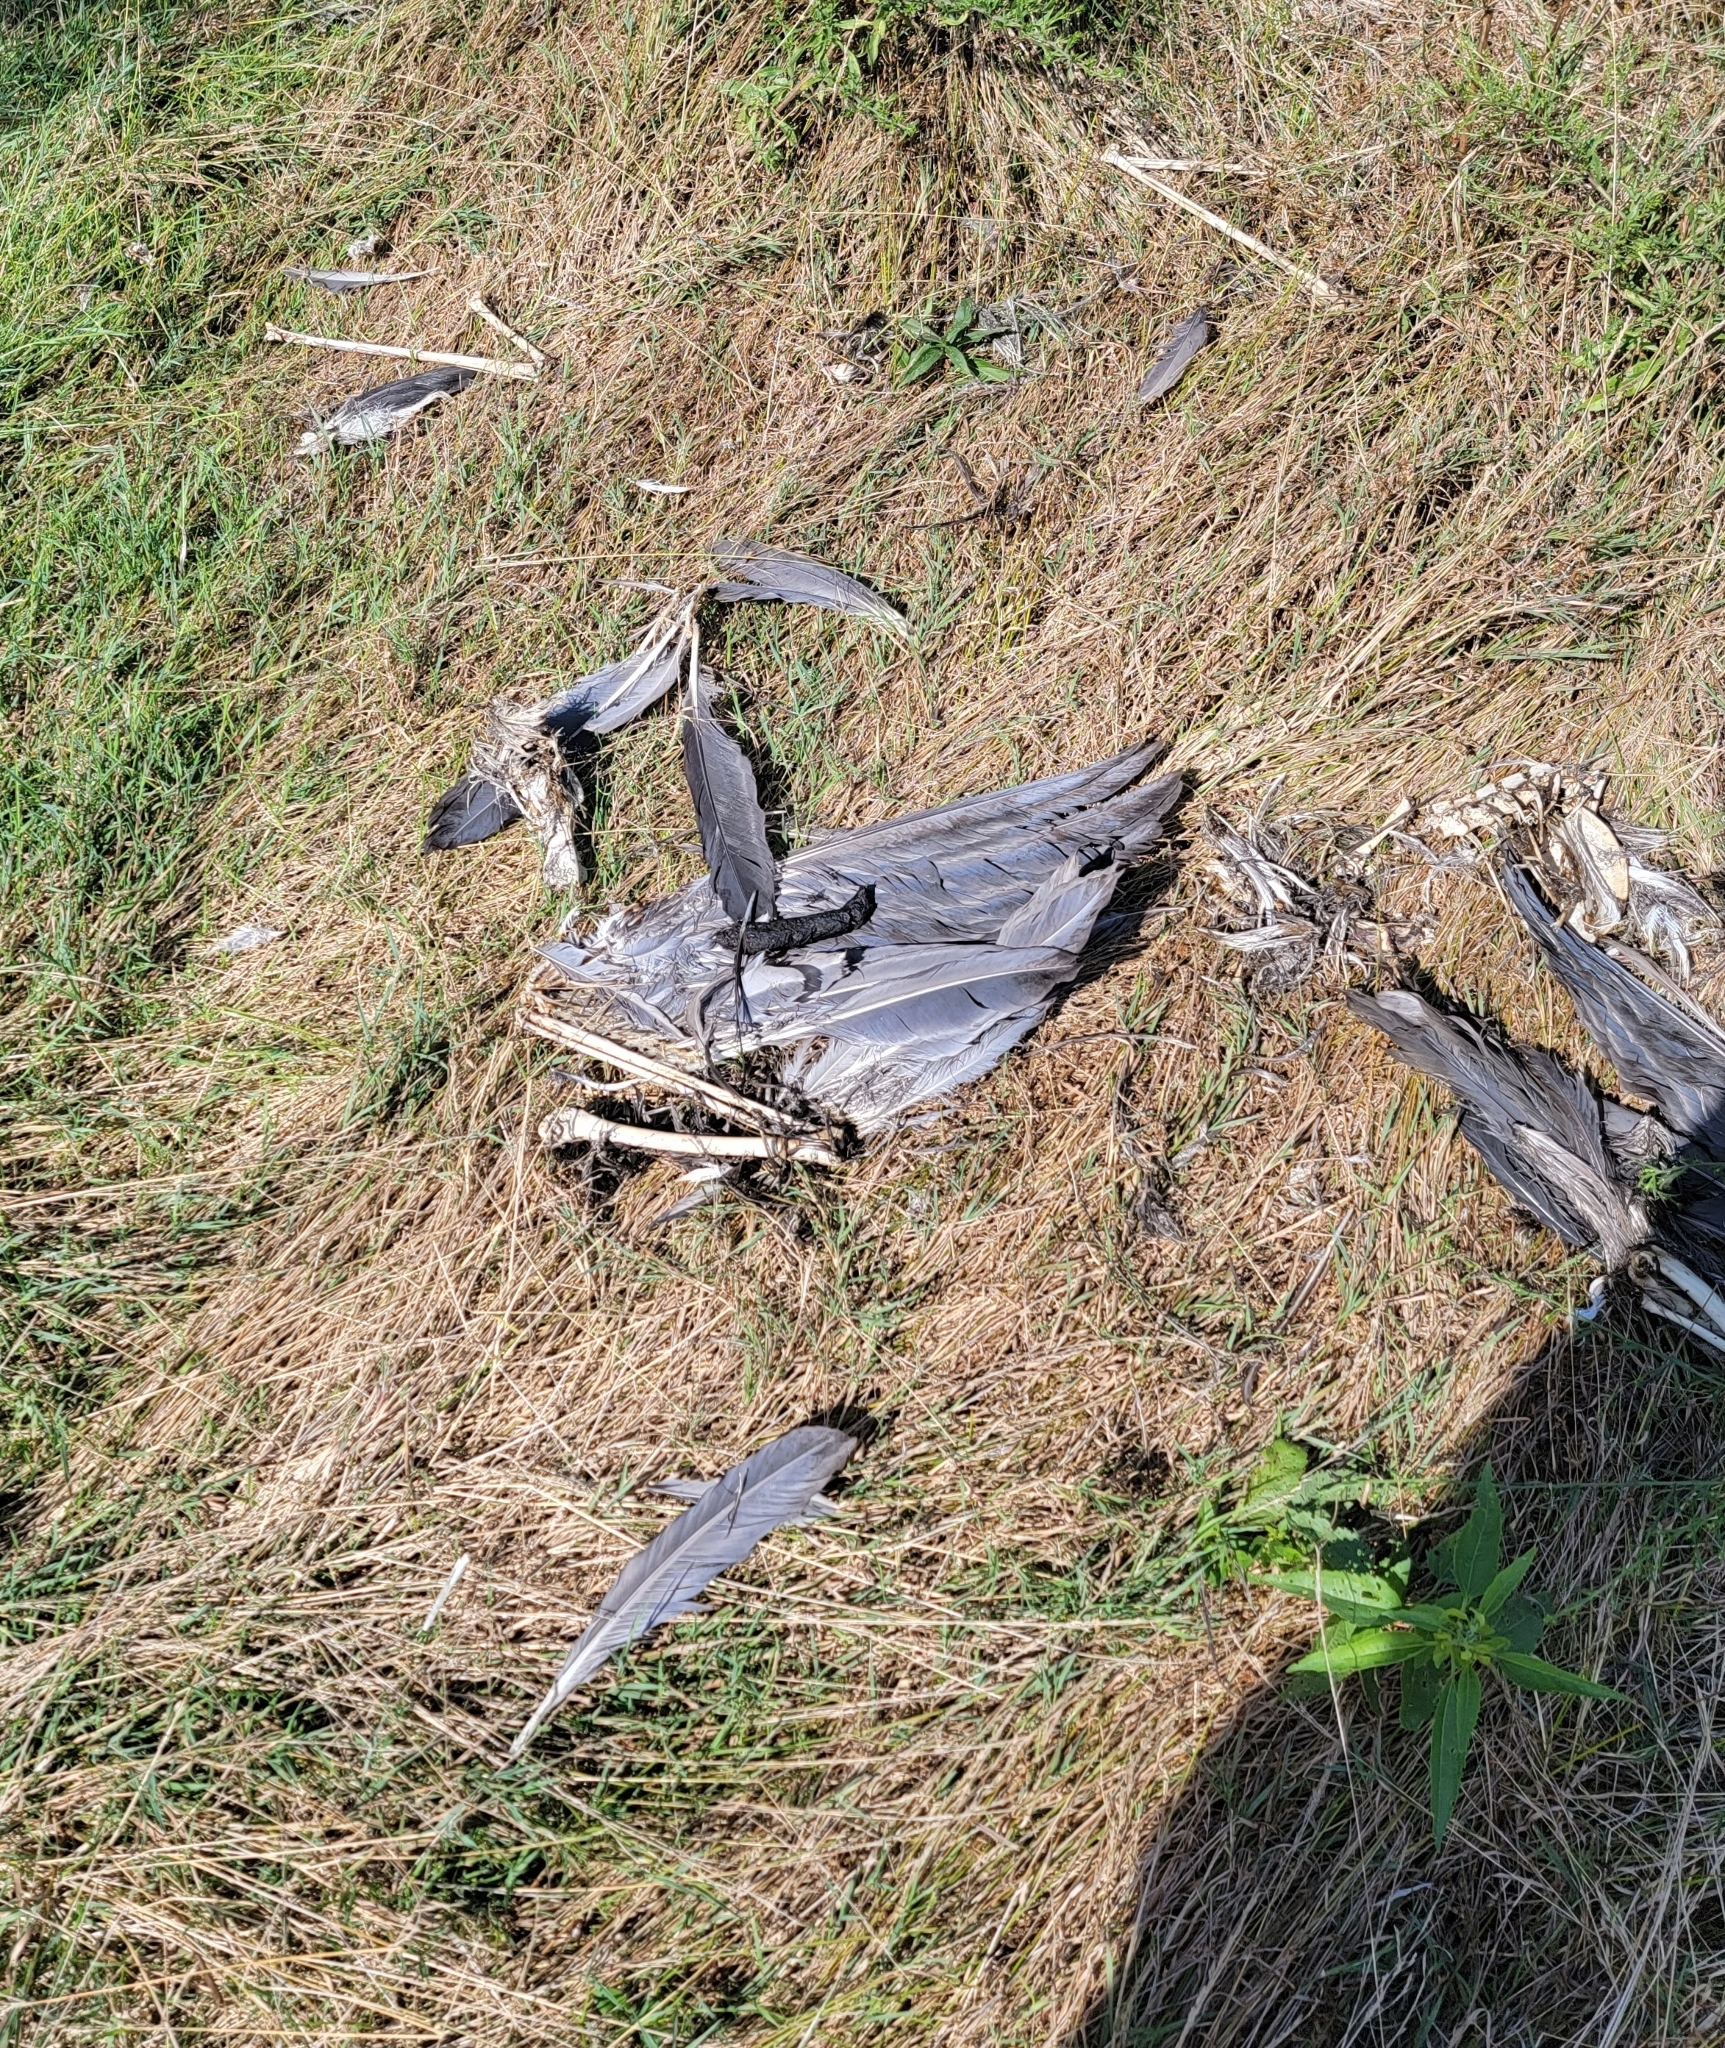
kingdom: Animalia
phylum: Chordata
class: Aves
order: Pelecaniformes
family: Ardeidae
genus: Ardea
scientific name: Ardea herodias
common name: Great blue heron
